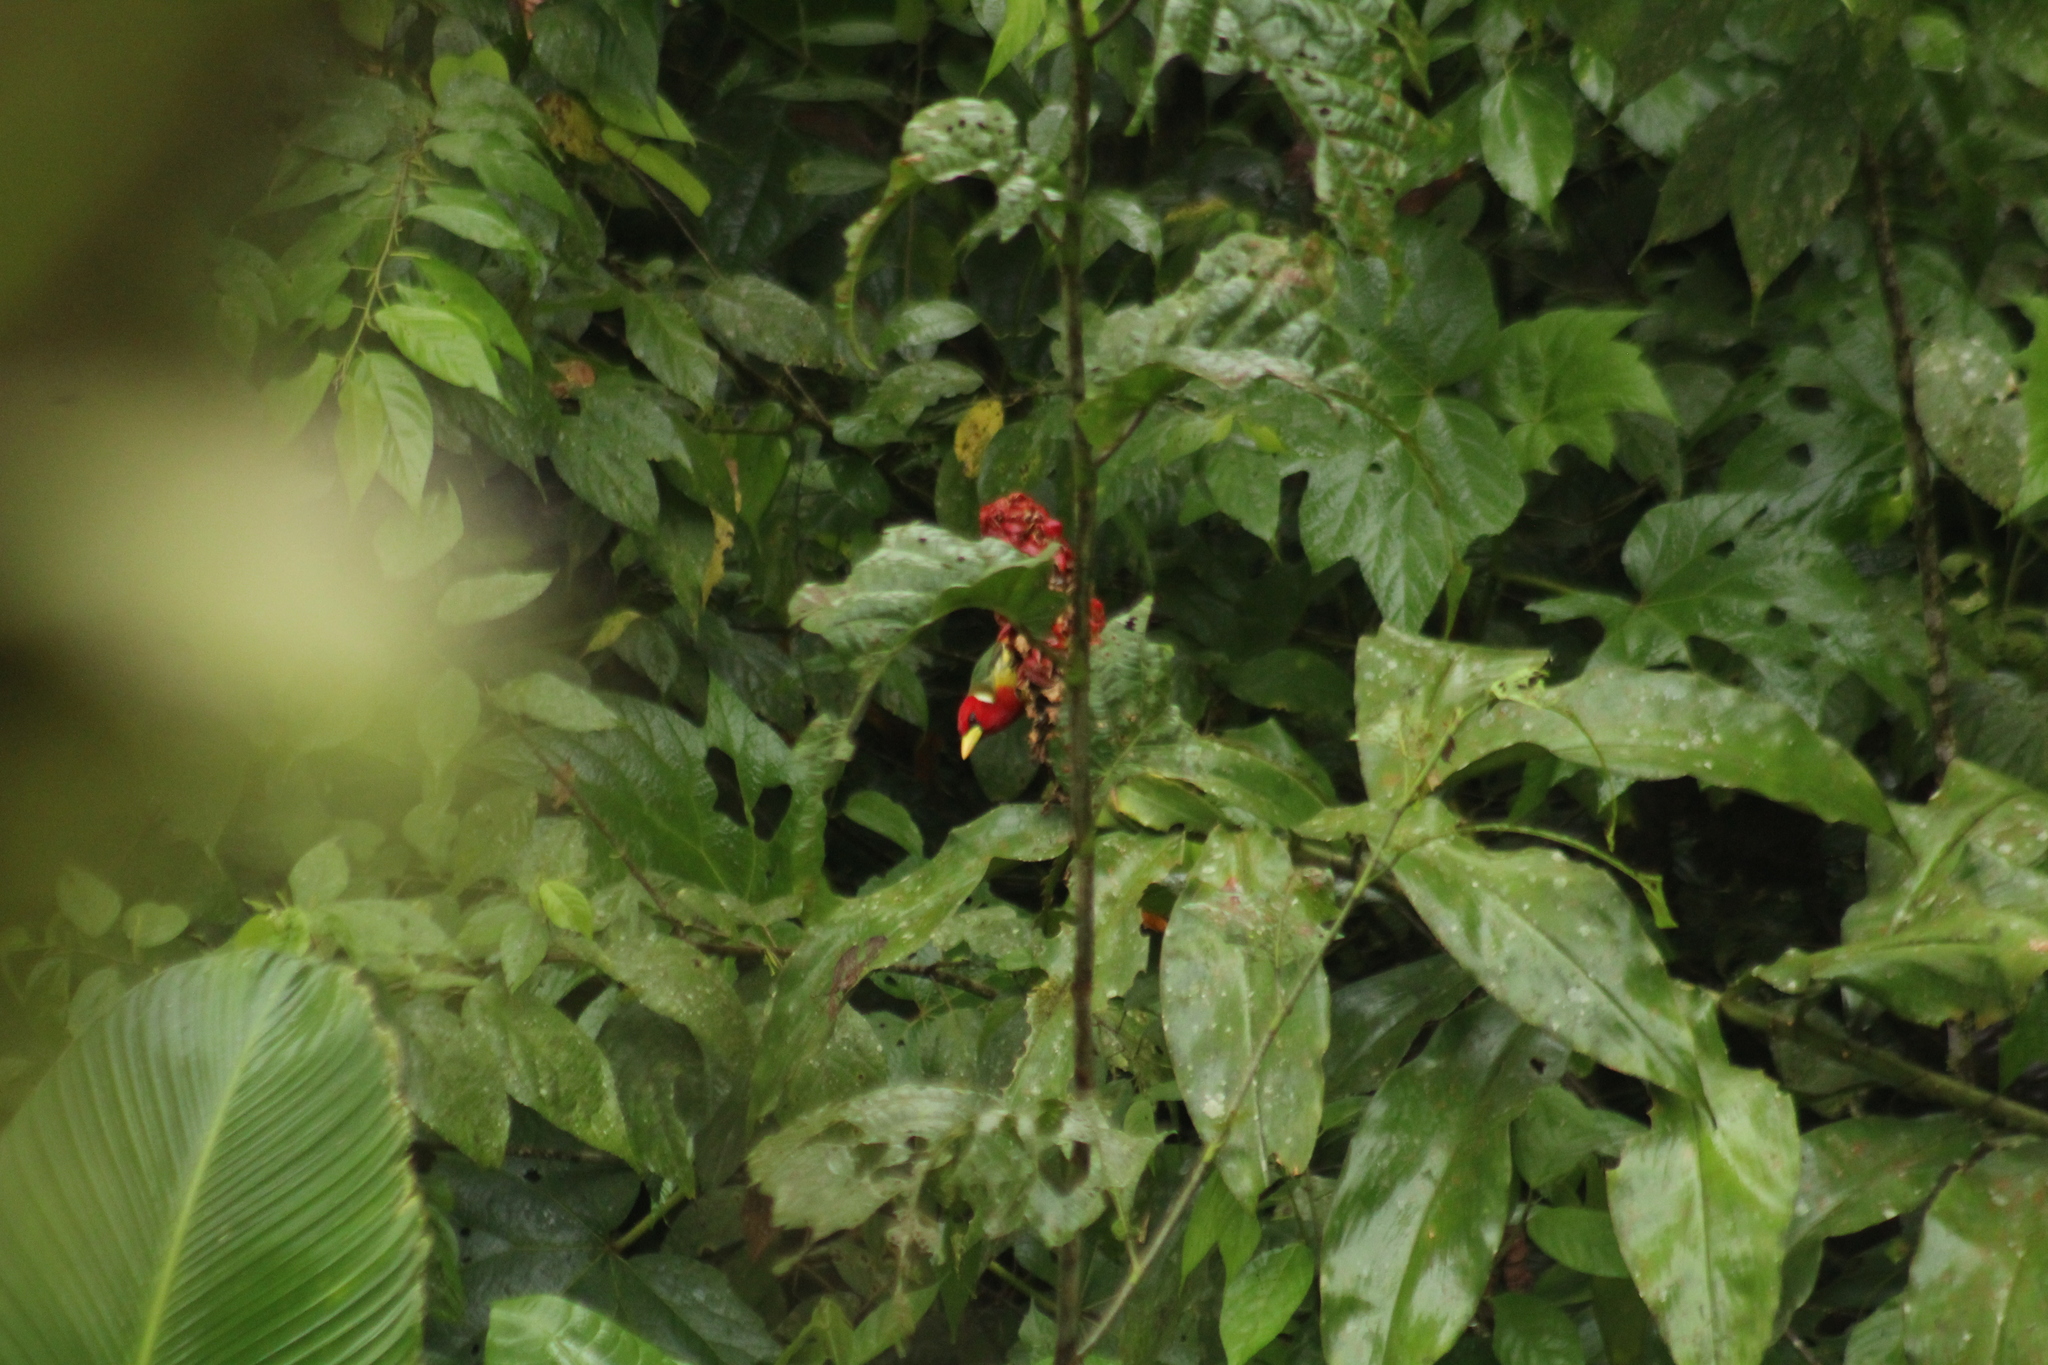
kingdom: Animalia
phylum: Chordata
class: Aves
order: Piciformes
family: Capitonidae
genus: Eubucco
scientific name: Eubucco bourcierii
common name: Red-headed barbet
